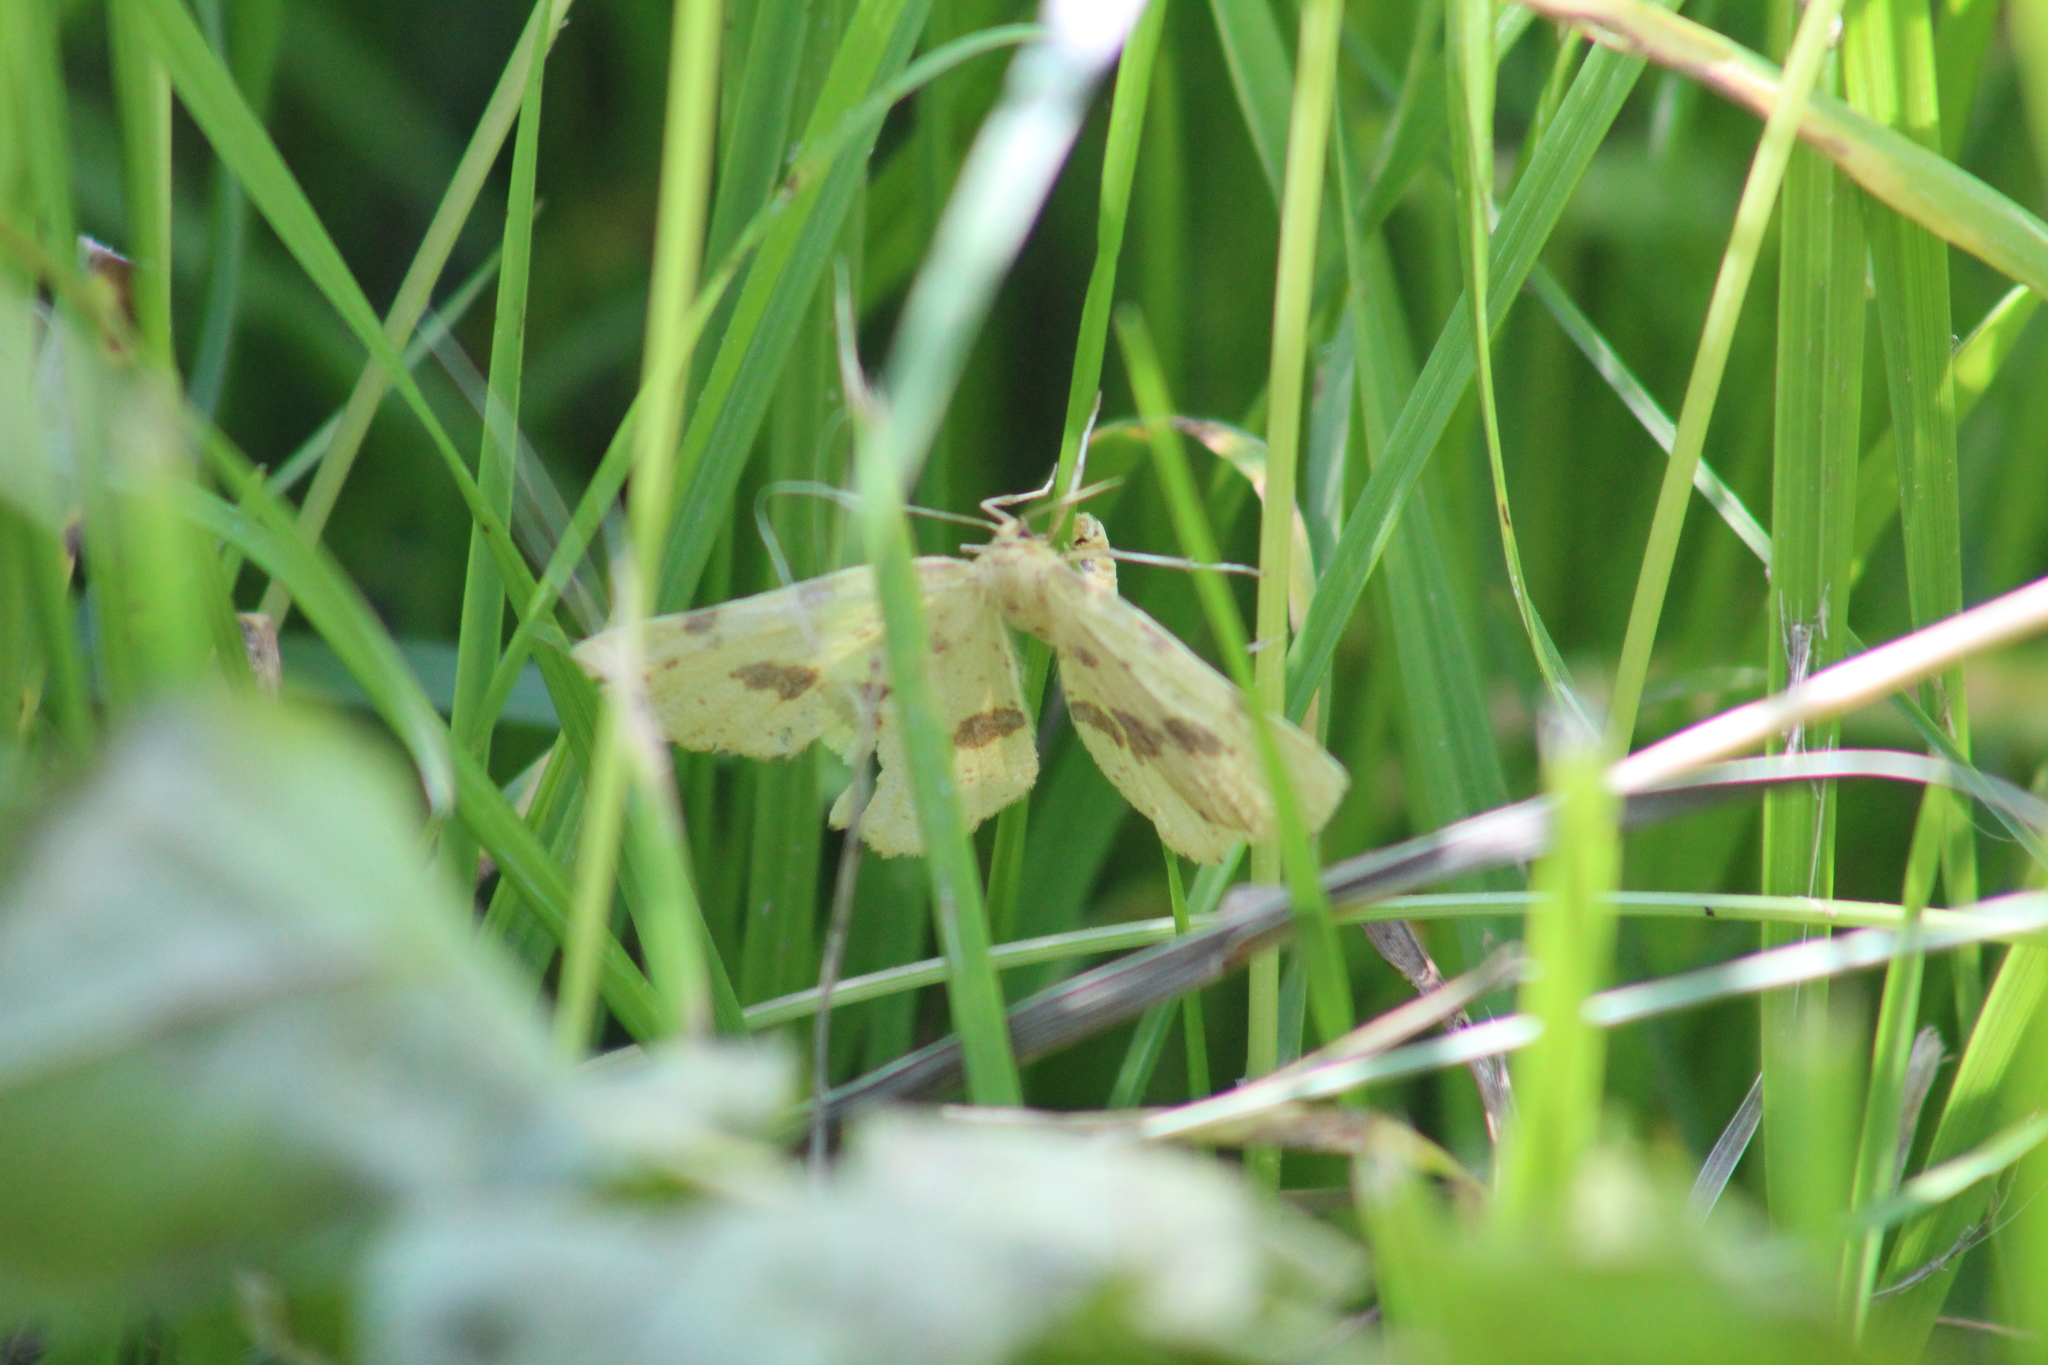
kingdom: Animalia
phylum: Arthropoda
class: Insecta
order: Lepidoptera
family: Geometridae
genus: Xanthotype
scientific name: Xanthotype
